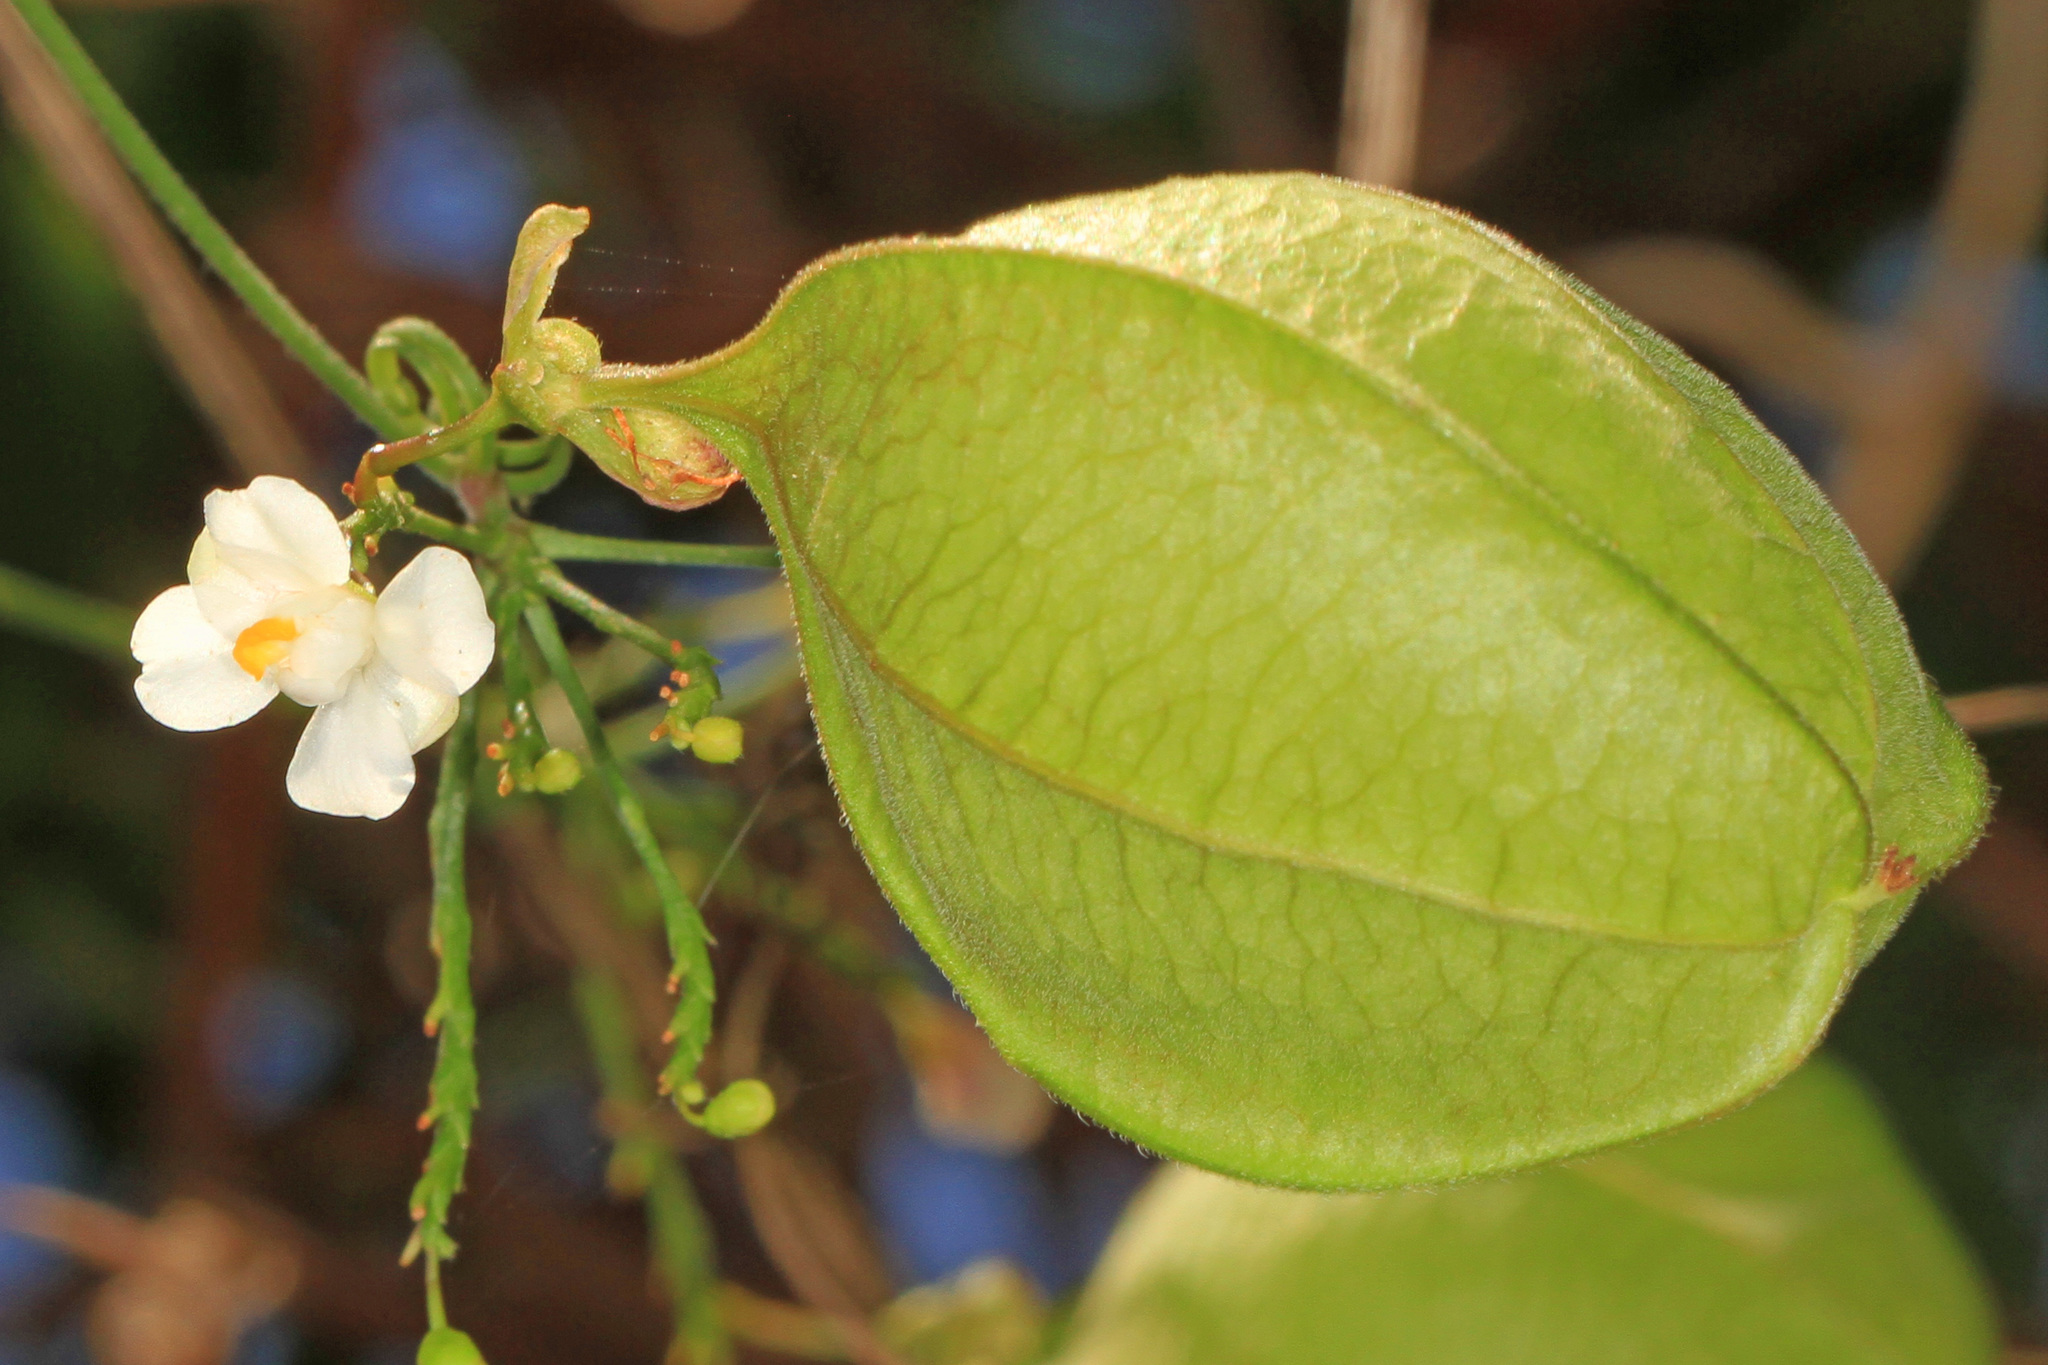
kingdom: Plantae
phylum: Tracheophyta
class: Magnoliopsida
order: Sapindales
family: Sapindaceae
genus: Cardiospermum
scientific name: Cardiospermum halicacabum
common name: Balloon vine
